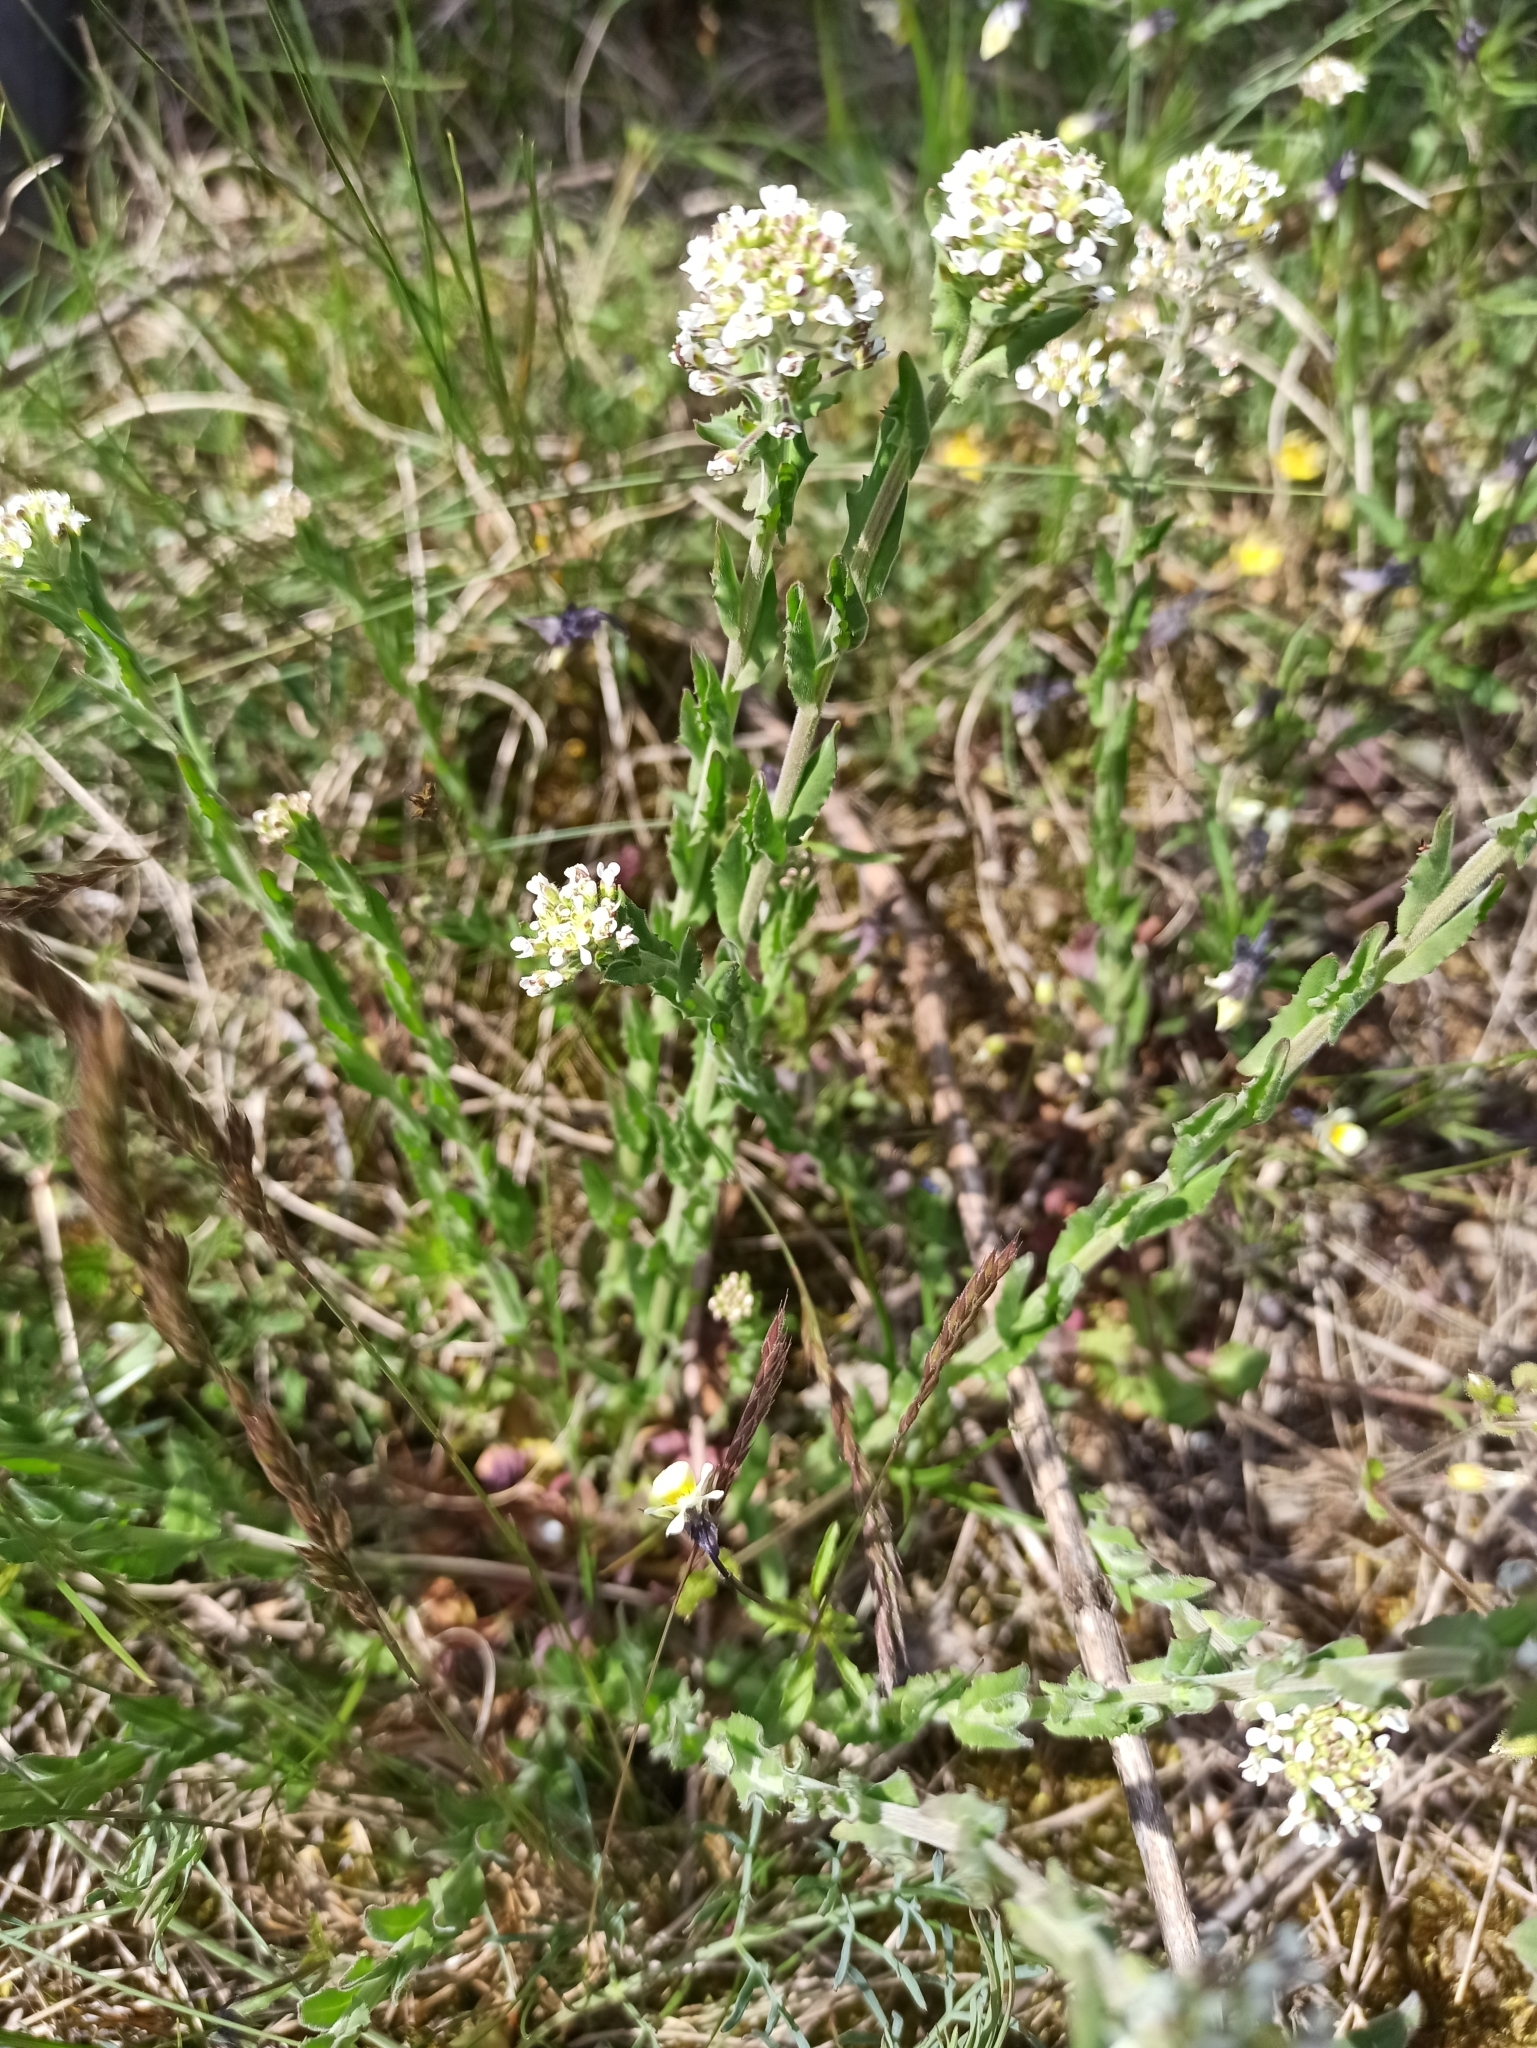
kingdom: Plantae
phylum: Tracheophyta
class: Magnoliopsida
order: Brassicales
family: Brassicaceae
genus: Lepidium
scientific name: Lepidium campestre
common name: Field pepperwort
